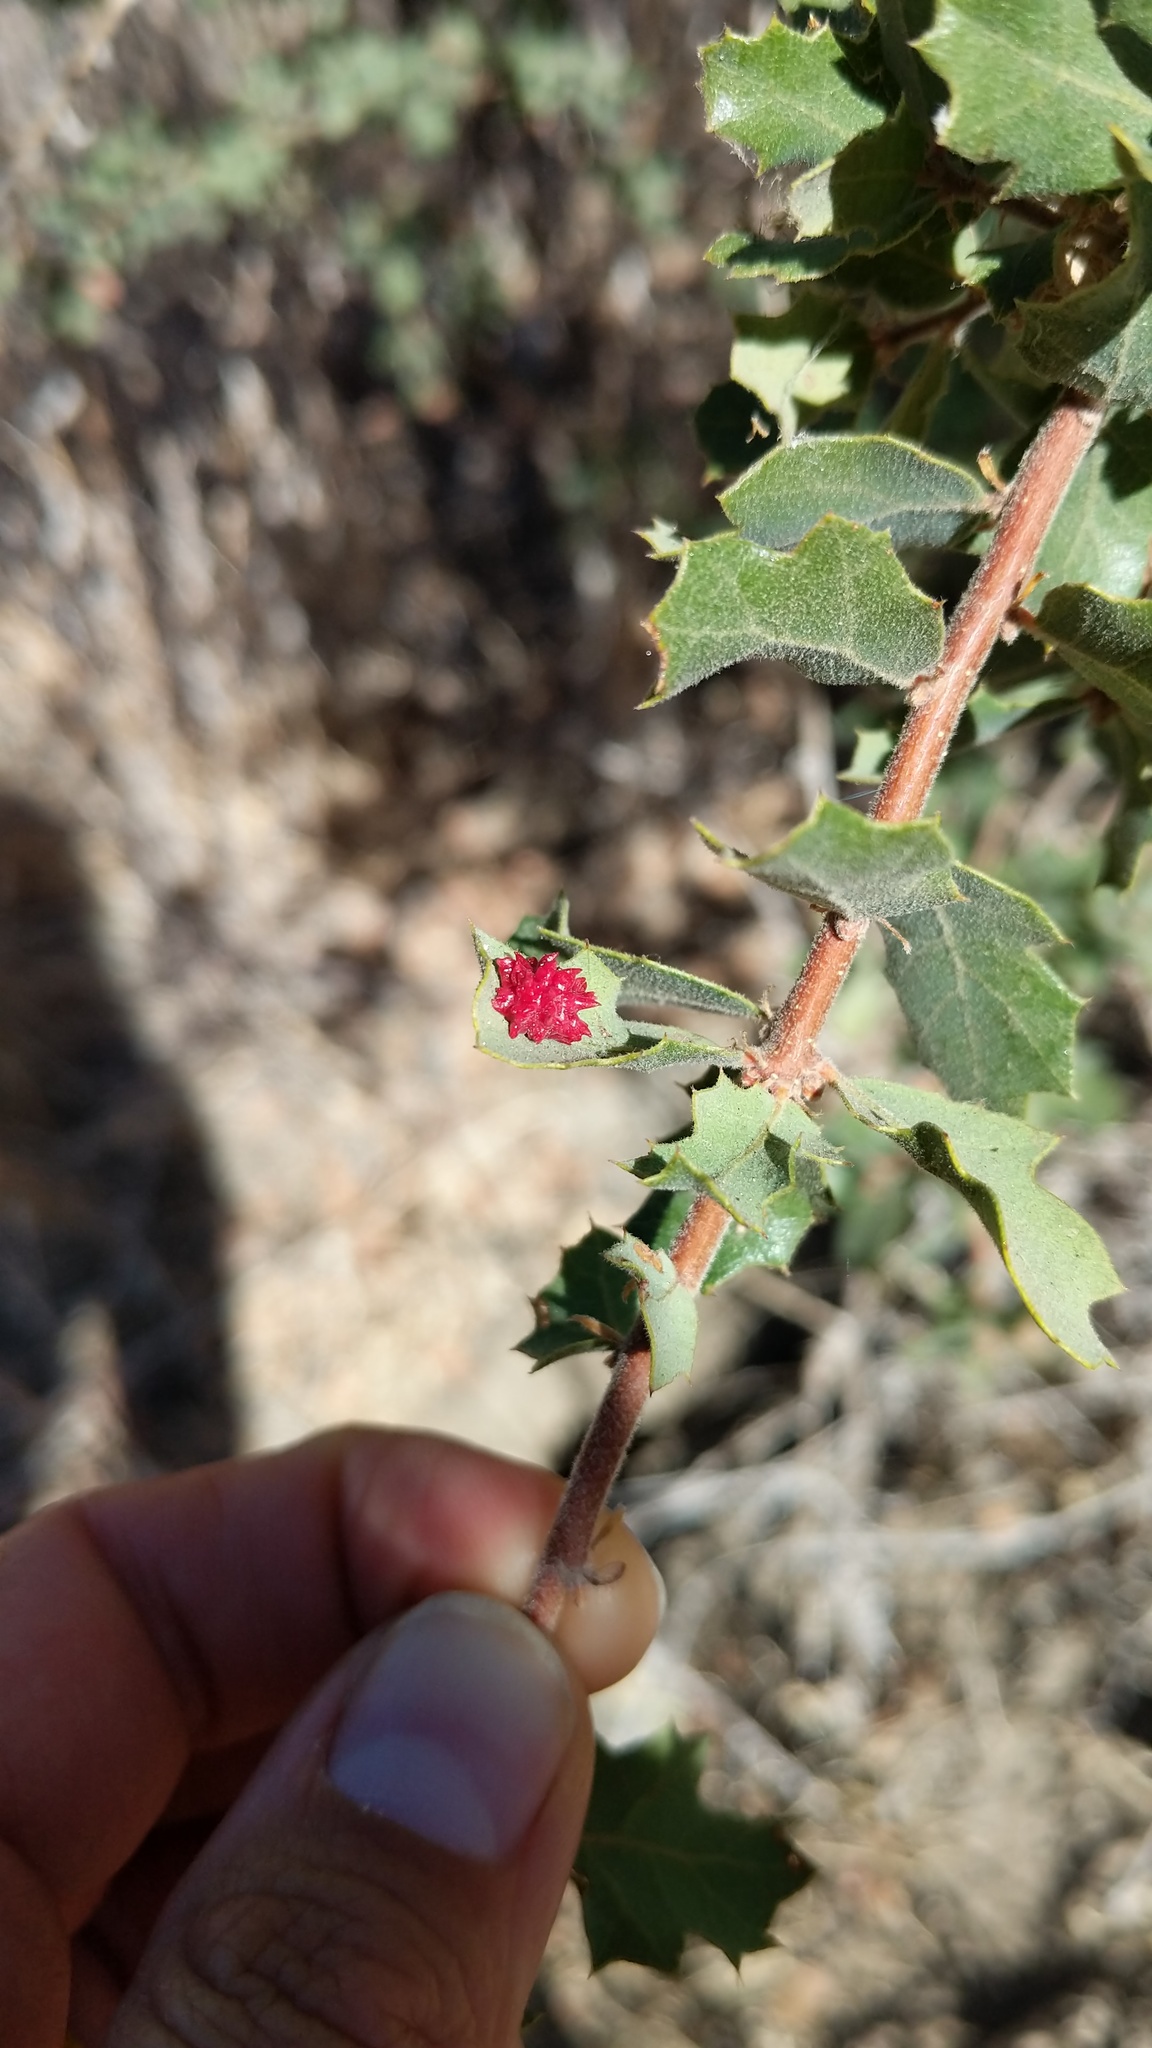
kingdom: Animalia
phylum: Arthropoda
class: Insecta
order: Hymenoptera
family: Cynipidae
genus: Cynips
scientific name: Cynips
